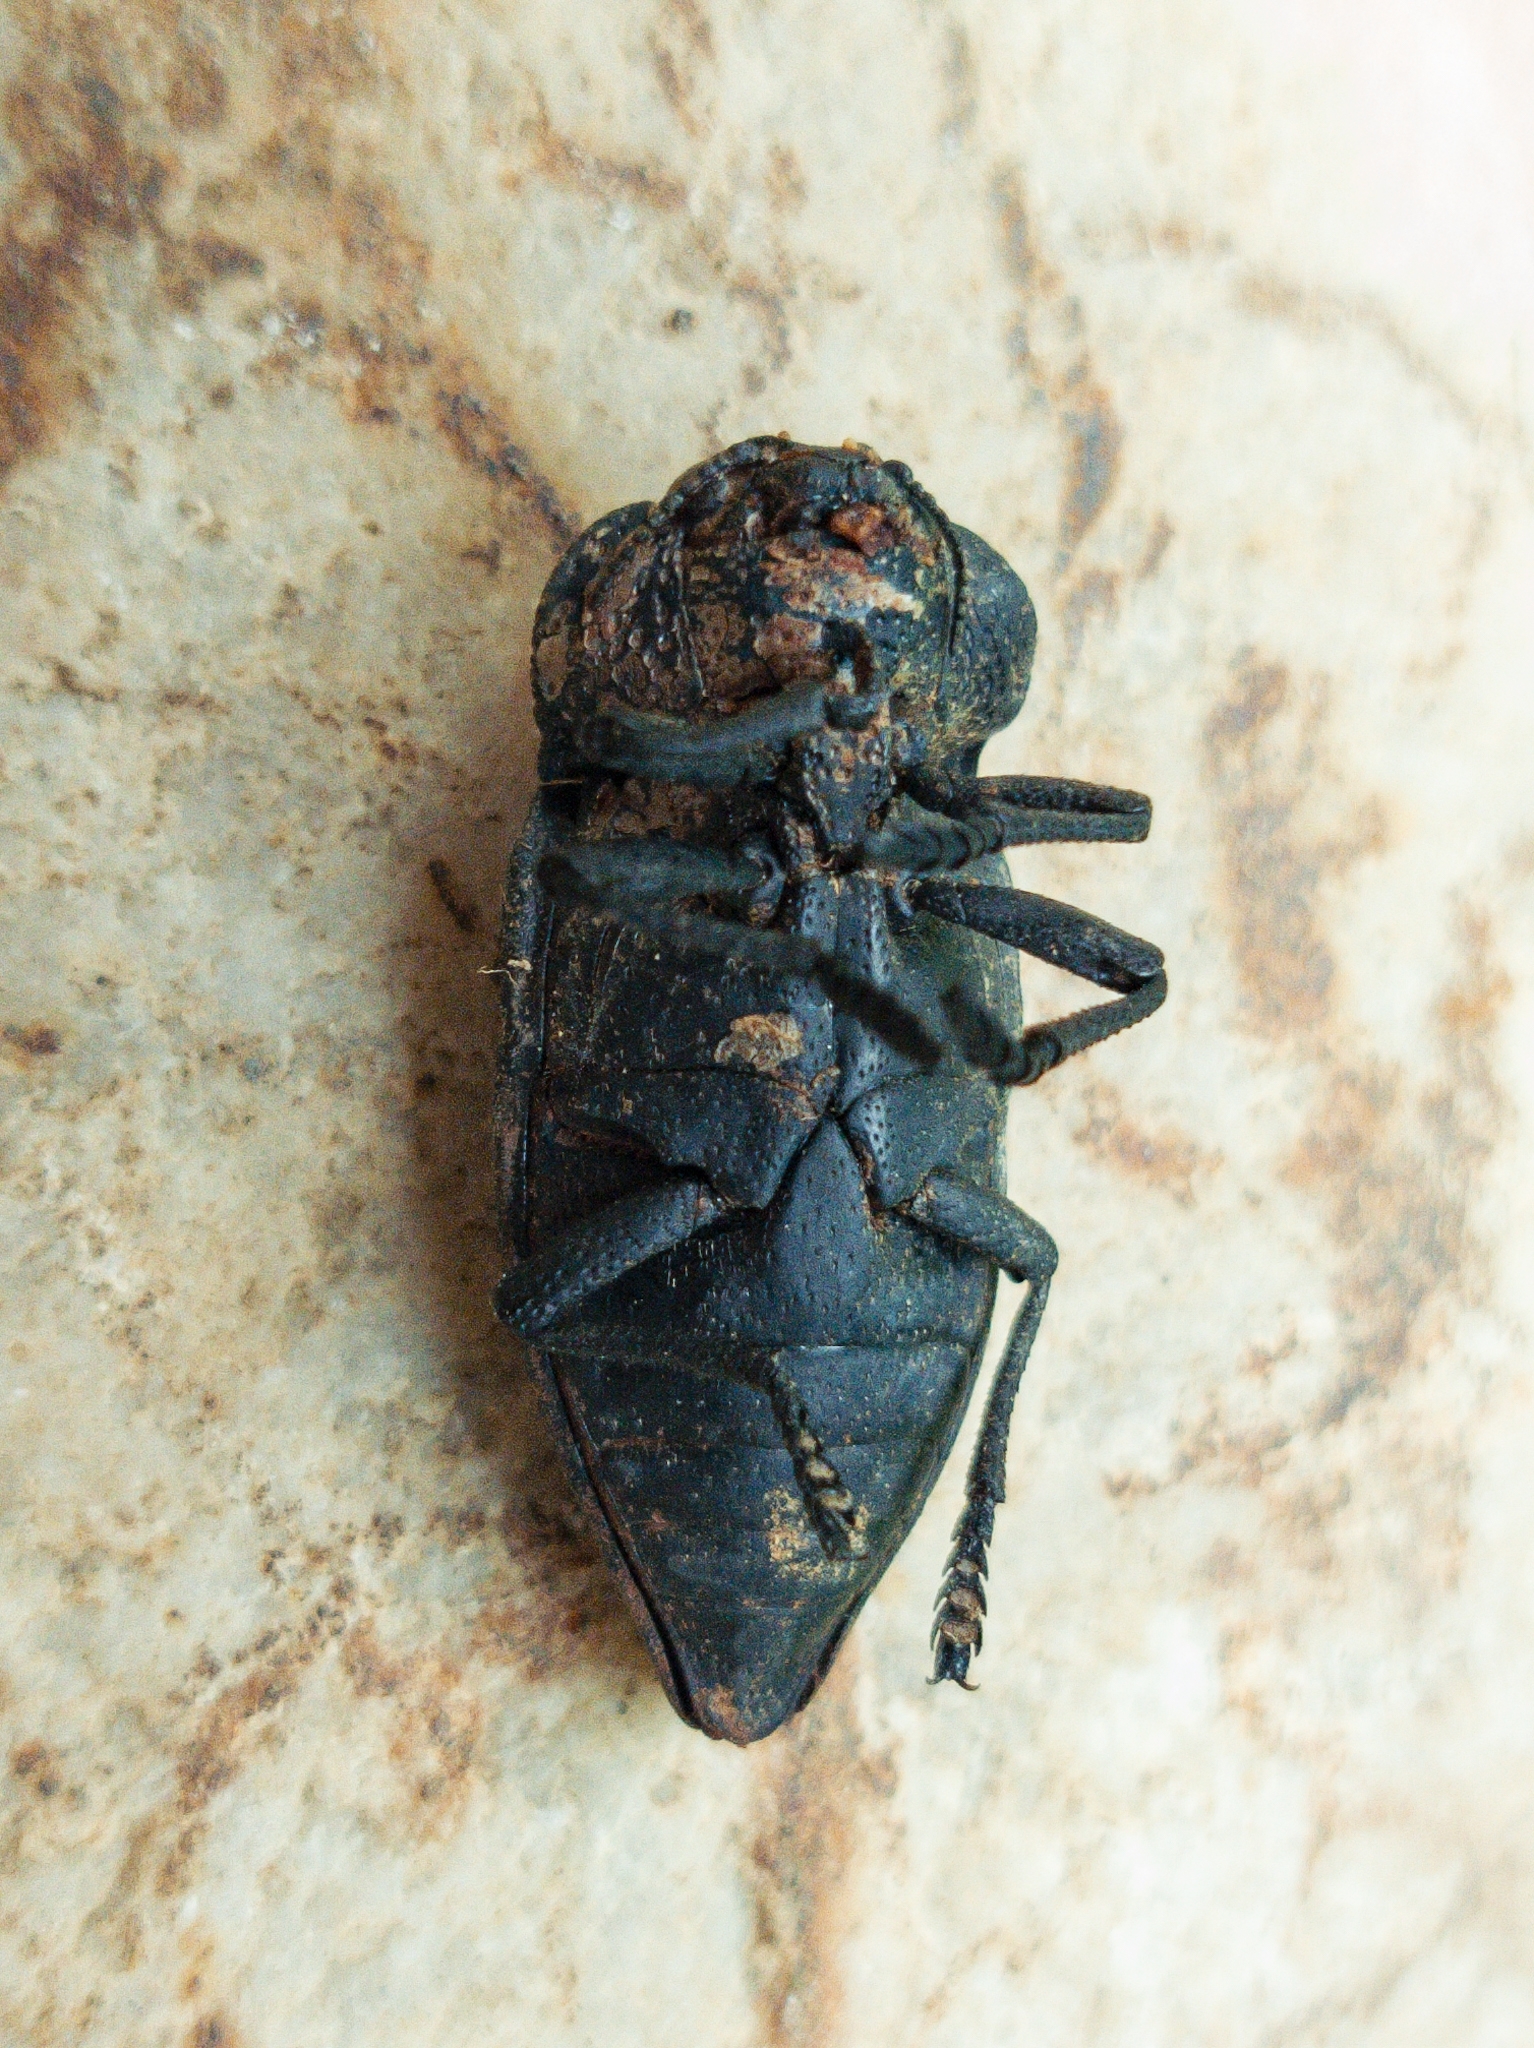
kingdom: Animalia
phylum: Arthropoda
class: Insecta
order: Coleoptera
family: Buprestidae
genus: Capnodis
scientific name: Capnodis tenebrionis
